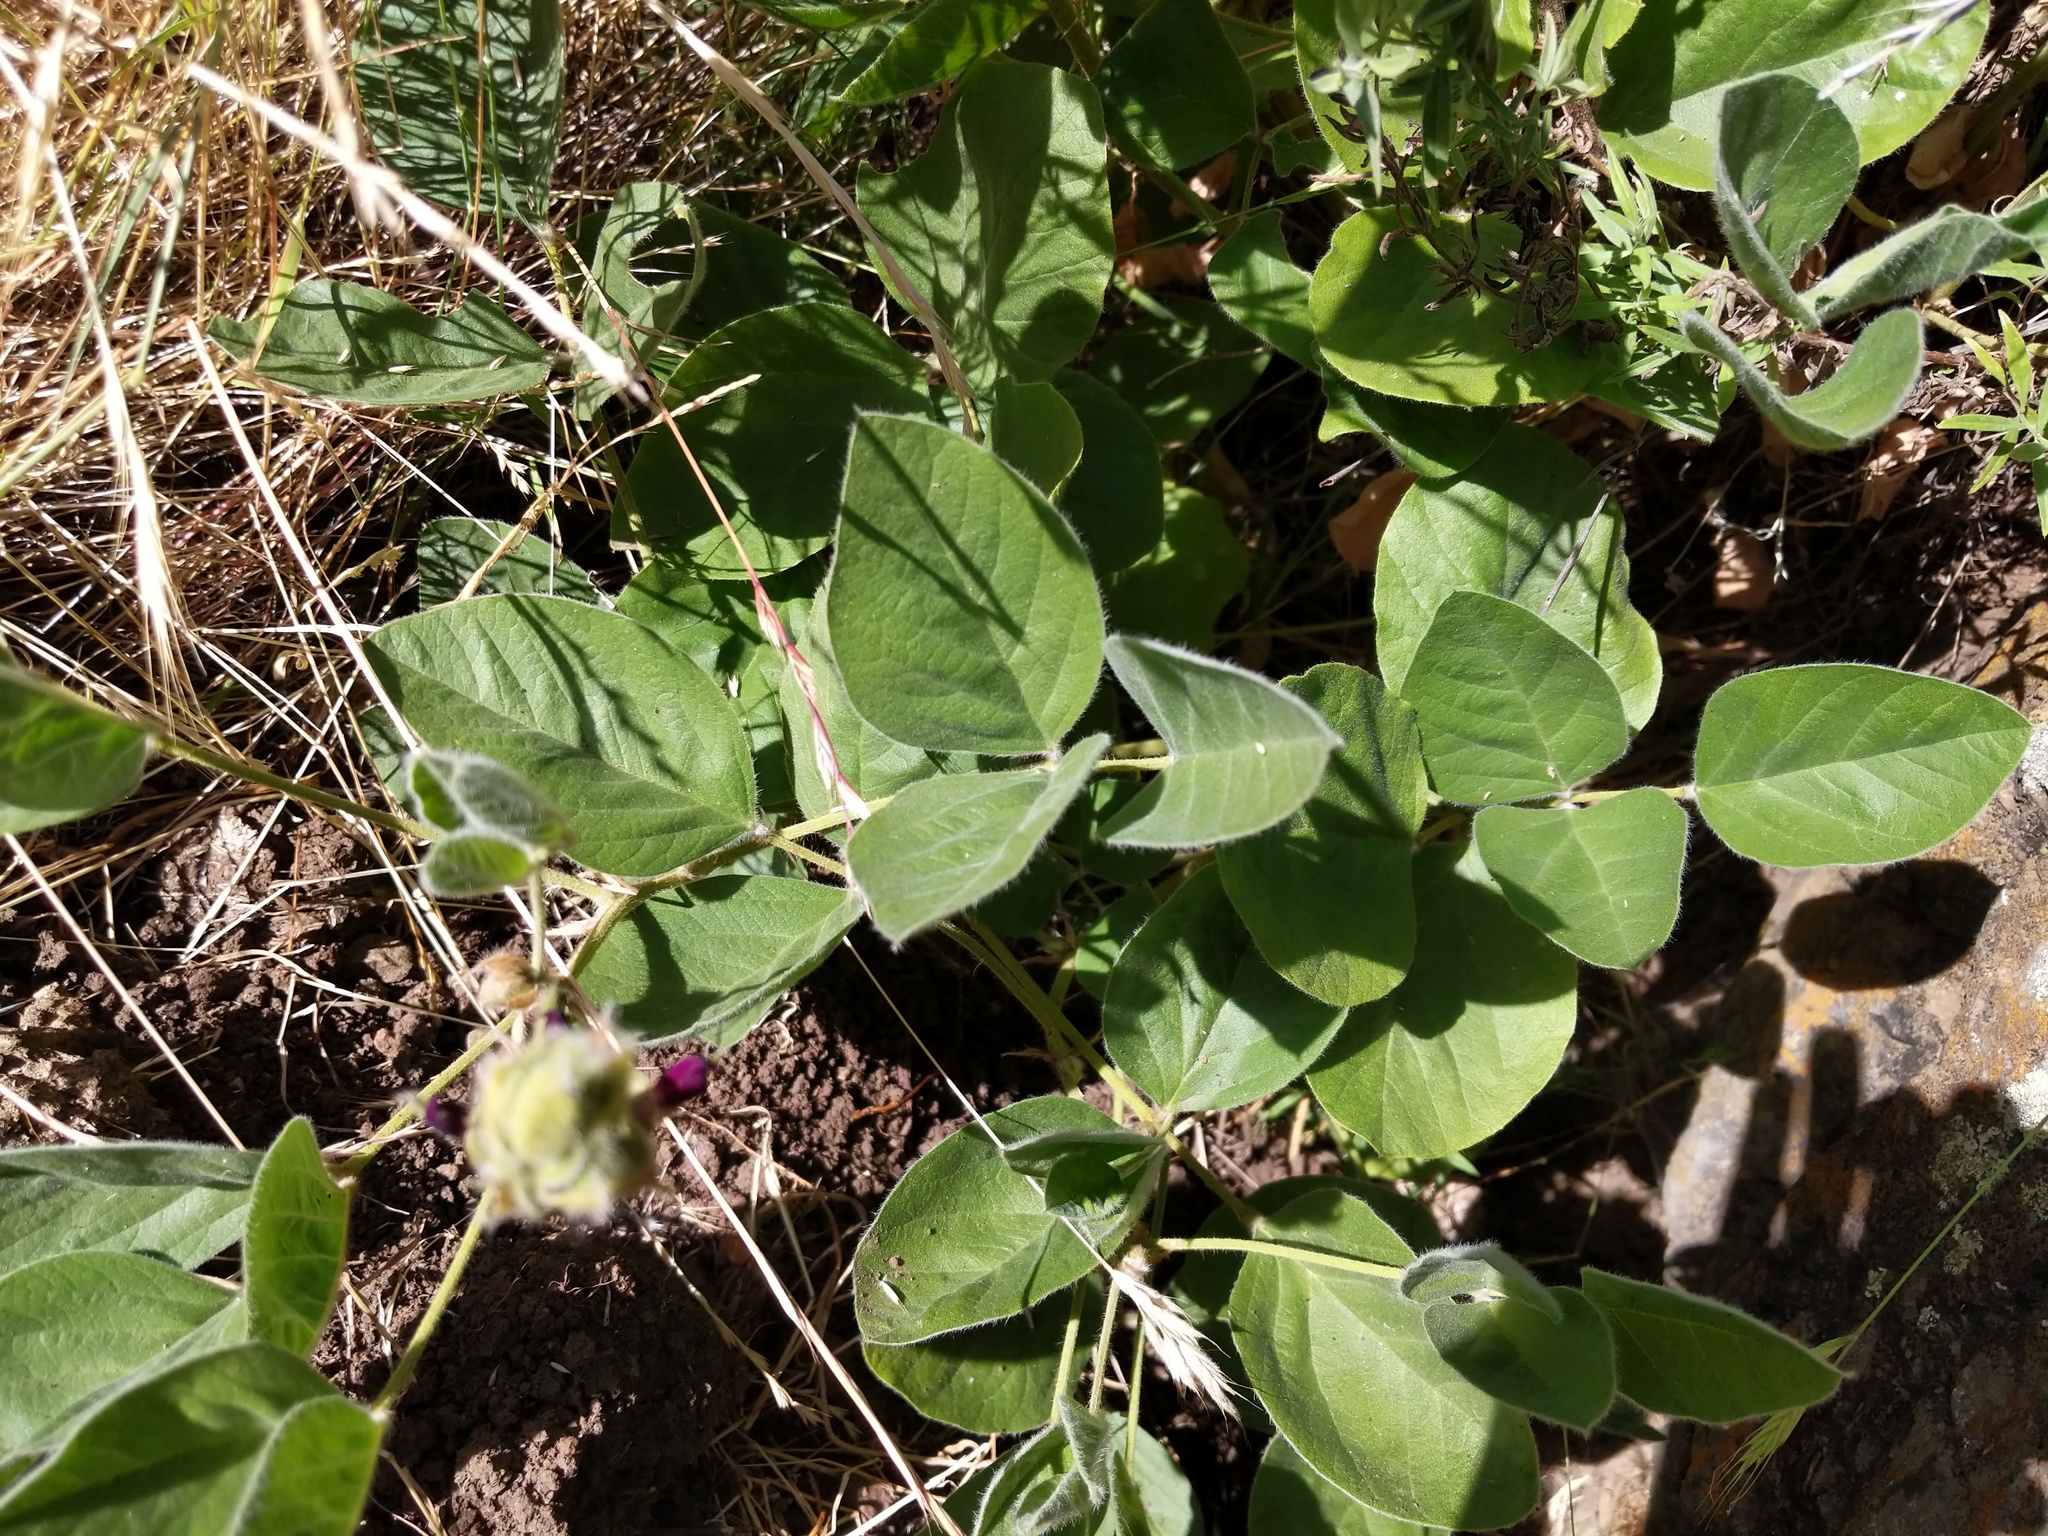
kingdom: Plantae
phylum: Tracheophyta
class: Magnoliopsida
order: Fabales
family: Fabaceae
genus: Hoita
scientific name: Hoita strobilina
